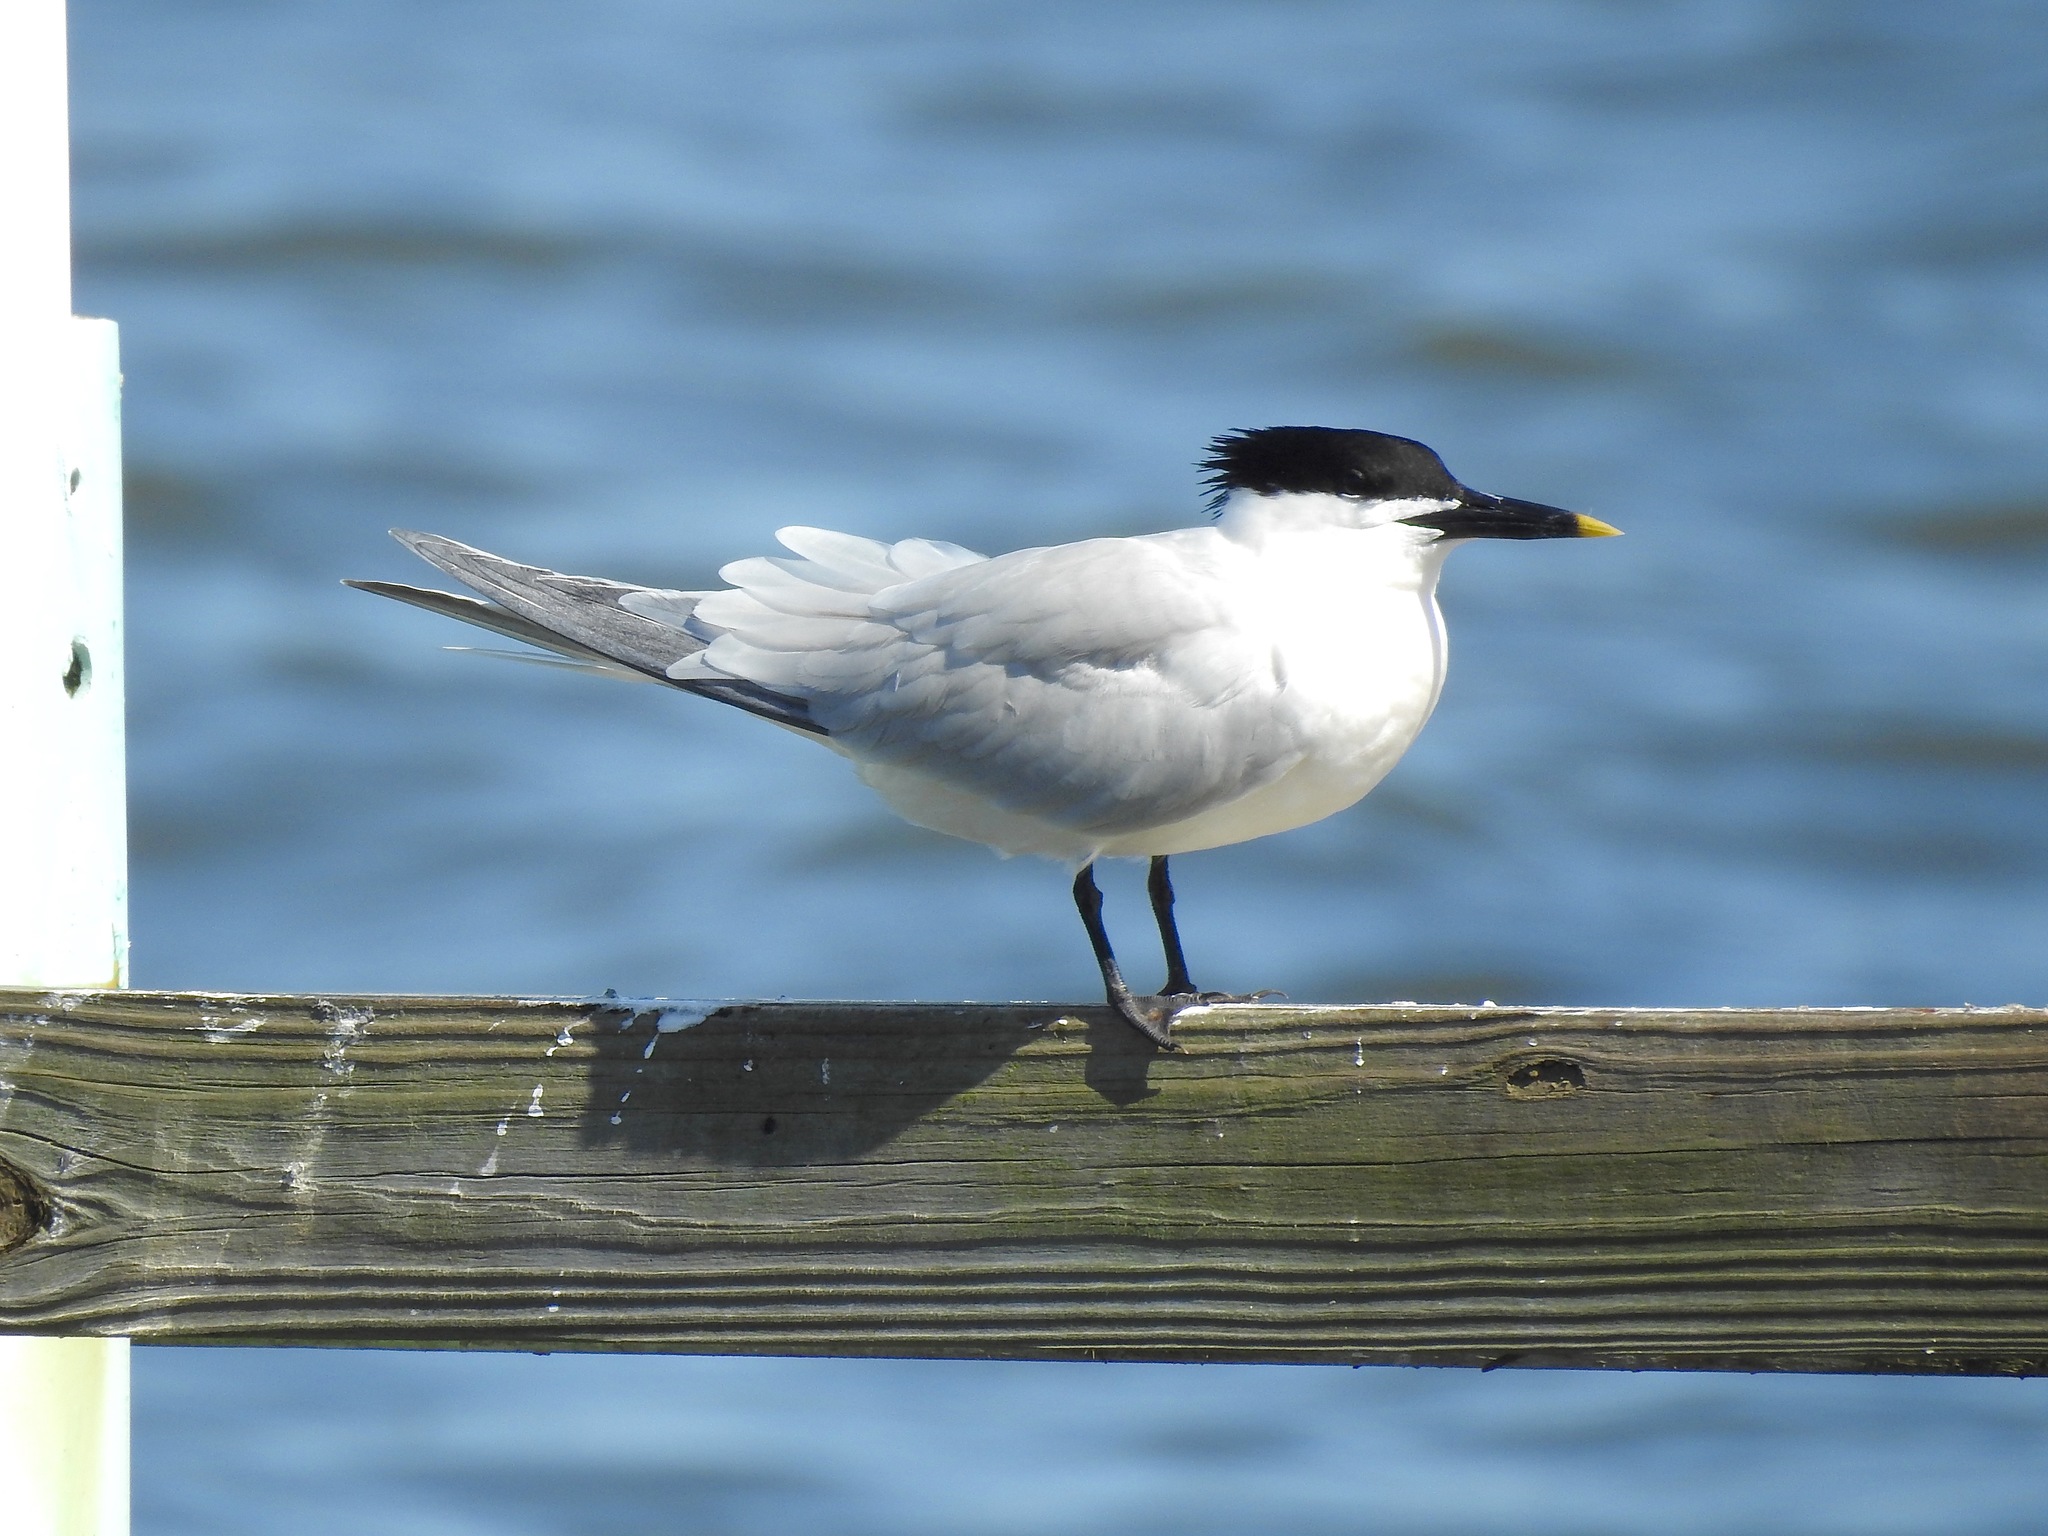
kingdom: Animalia
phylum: Chordata
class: Aves
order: Charadriiformes
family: Laridae
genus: Thalasseus
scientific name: Thalasseus sandvicensis
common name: Sandwich tern
